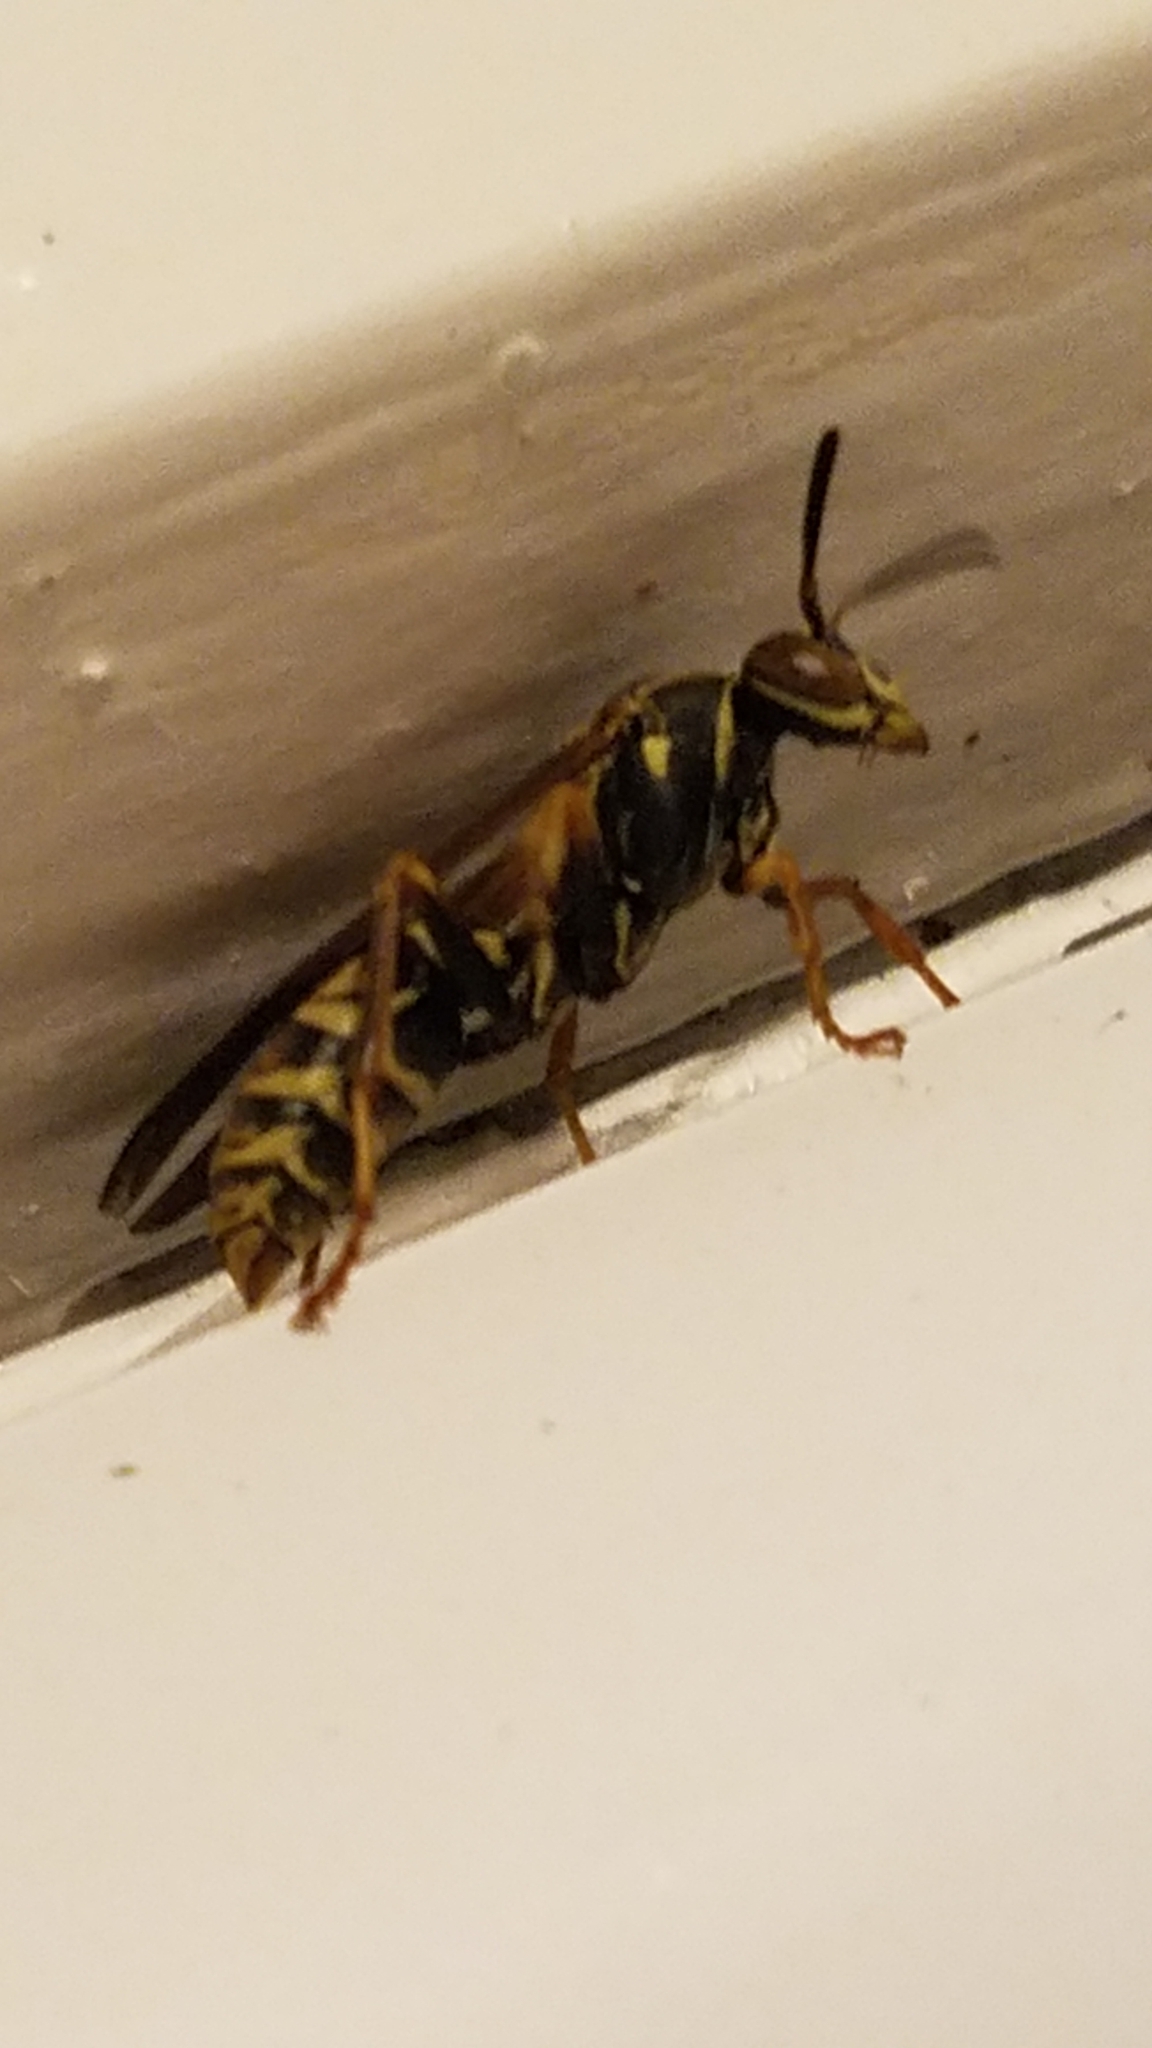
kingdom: Animalia
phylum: Arthropoda
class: Insecta
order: Hymenoptera
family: Eumenidae
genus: Polistes
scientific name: Polistes fuscatus
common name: Dark paper wasp
